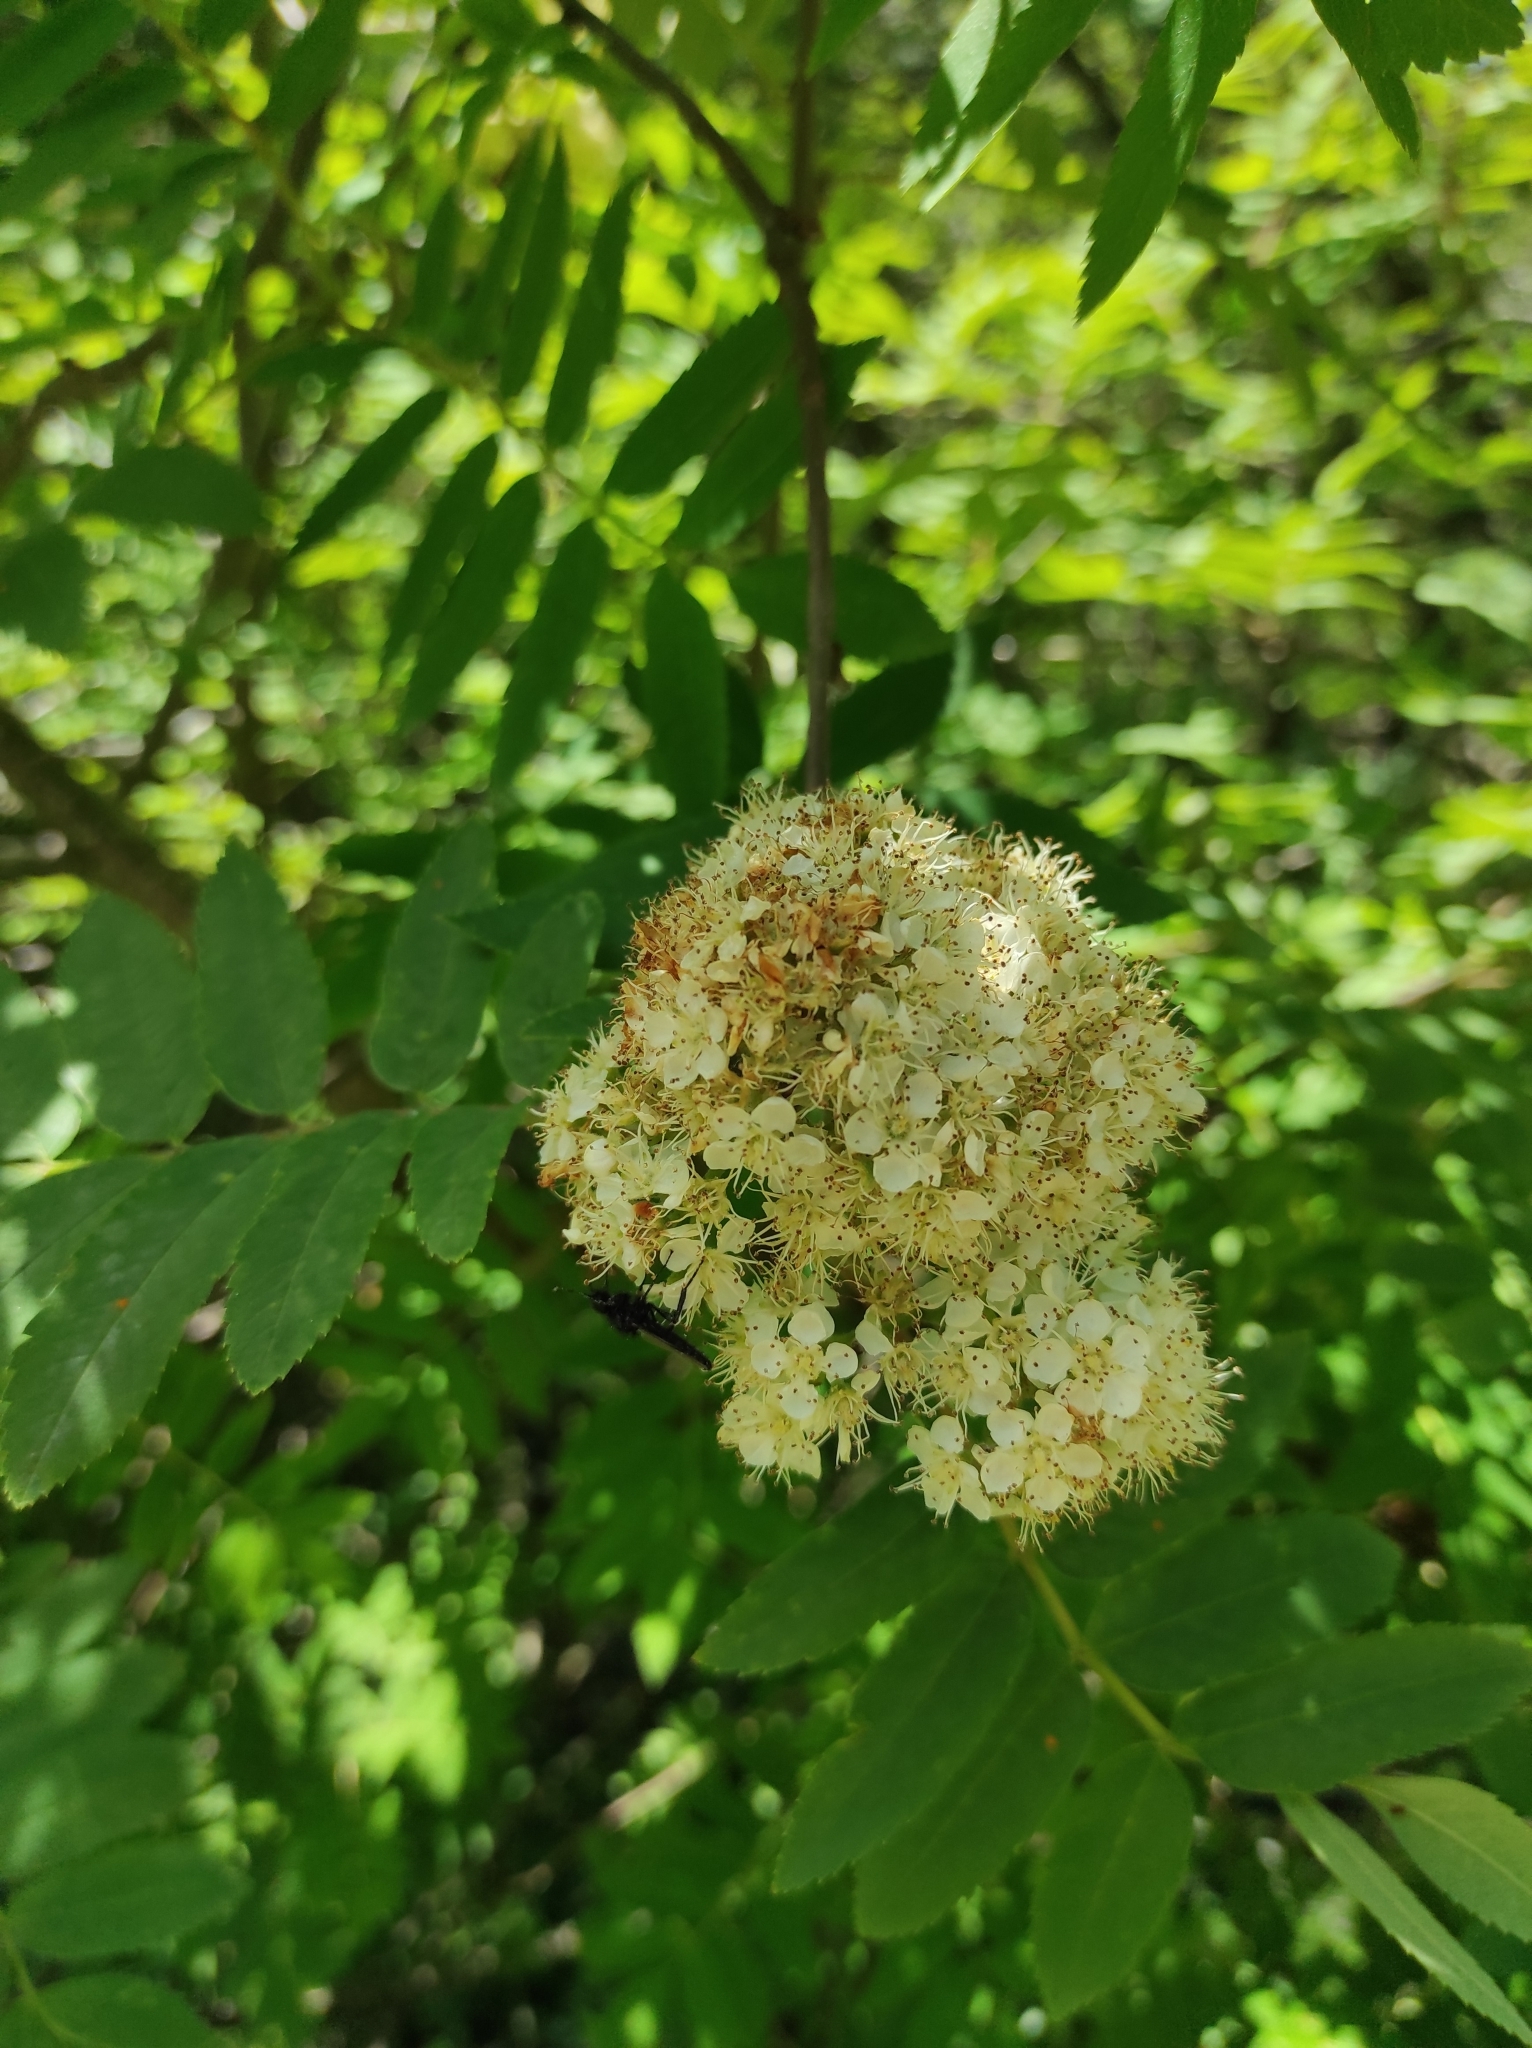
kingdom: Plantae
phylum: Tracheophyta
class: Magnoliopsida
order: Rosales
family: Rosaceae
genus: Sorbus
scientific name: Sorbus aucuparia
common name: Rowan
